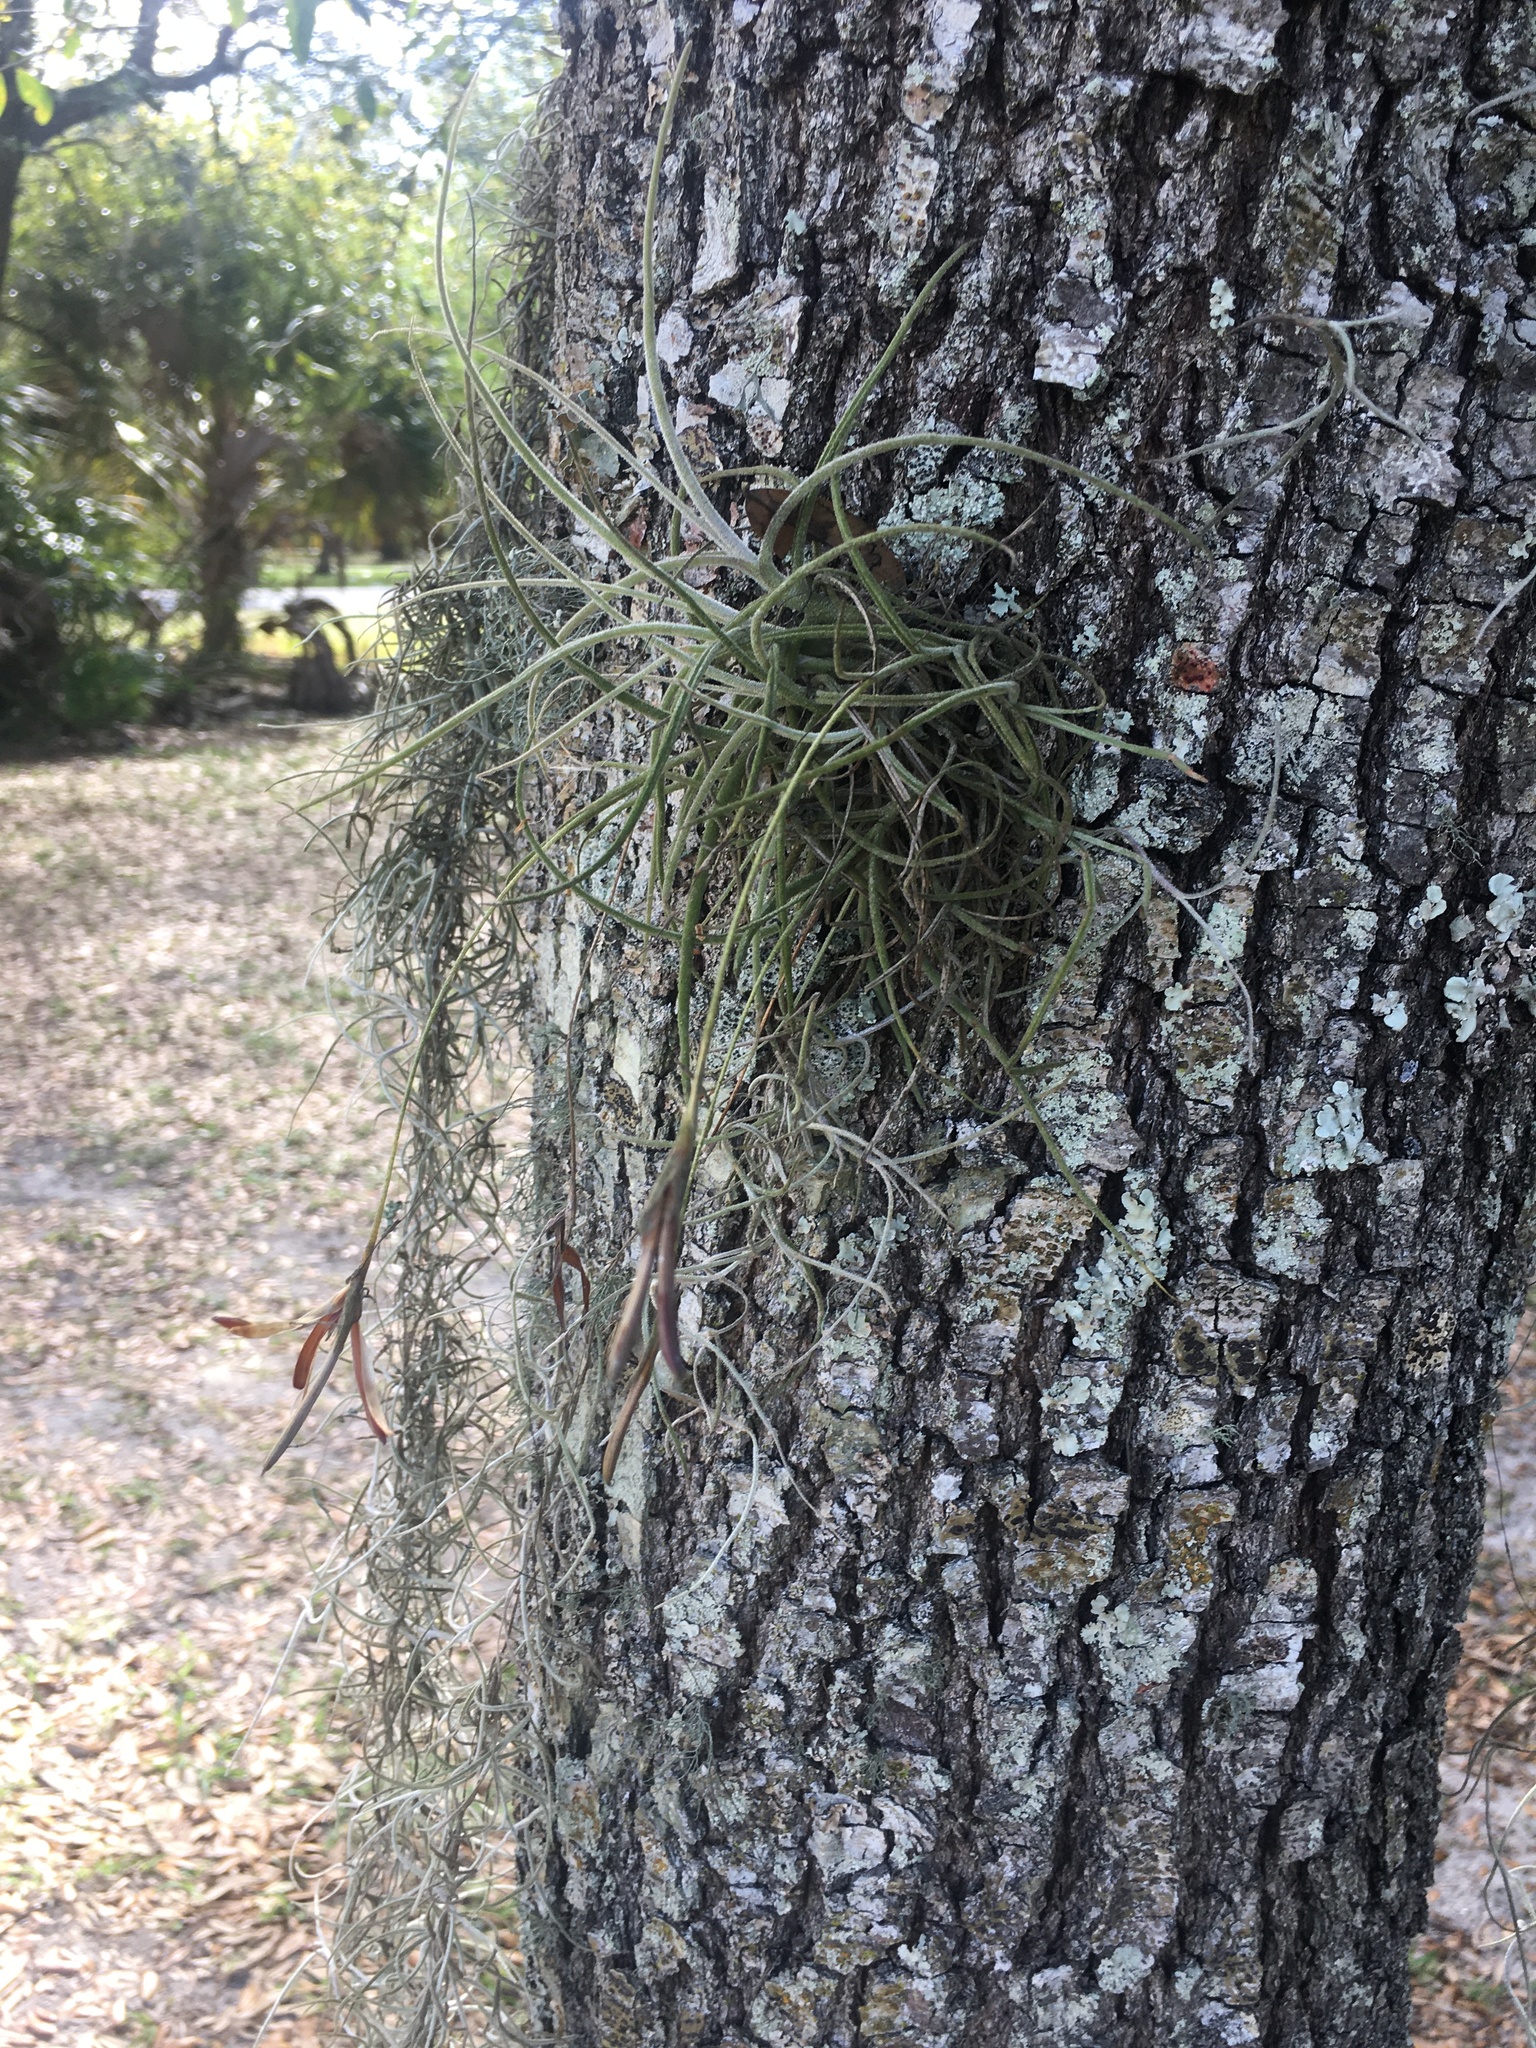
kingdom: Plantae
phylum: Tracheophyta
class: Liliopsida
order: Poales
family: Bromeliaceae
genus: Tillandsia
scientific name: Tillandsia recurvata
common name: Small ballmoss
